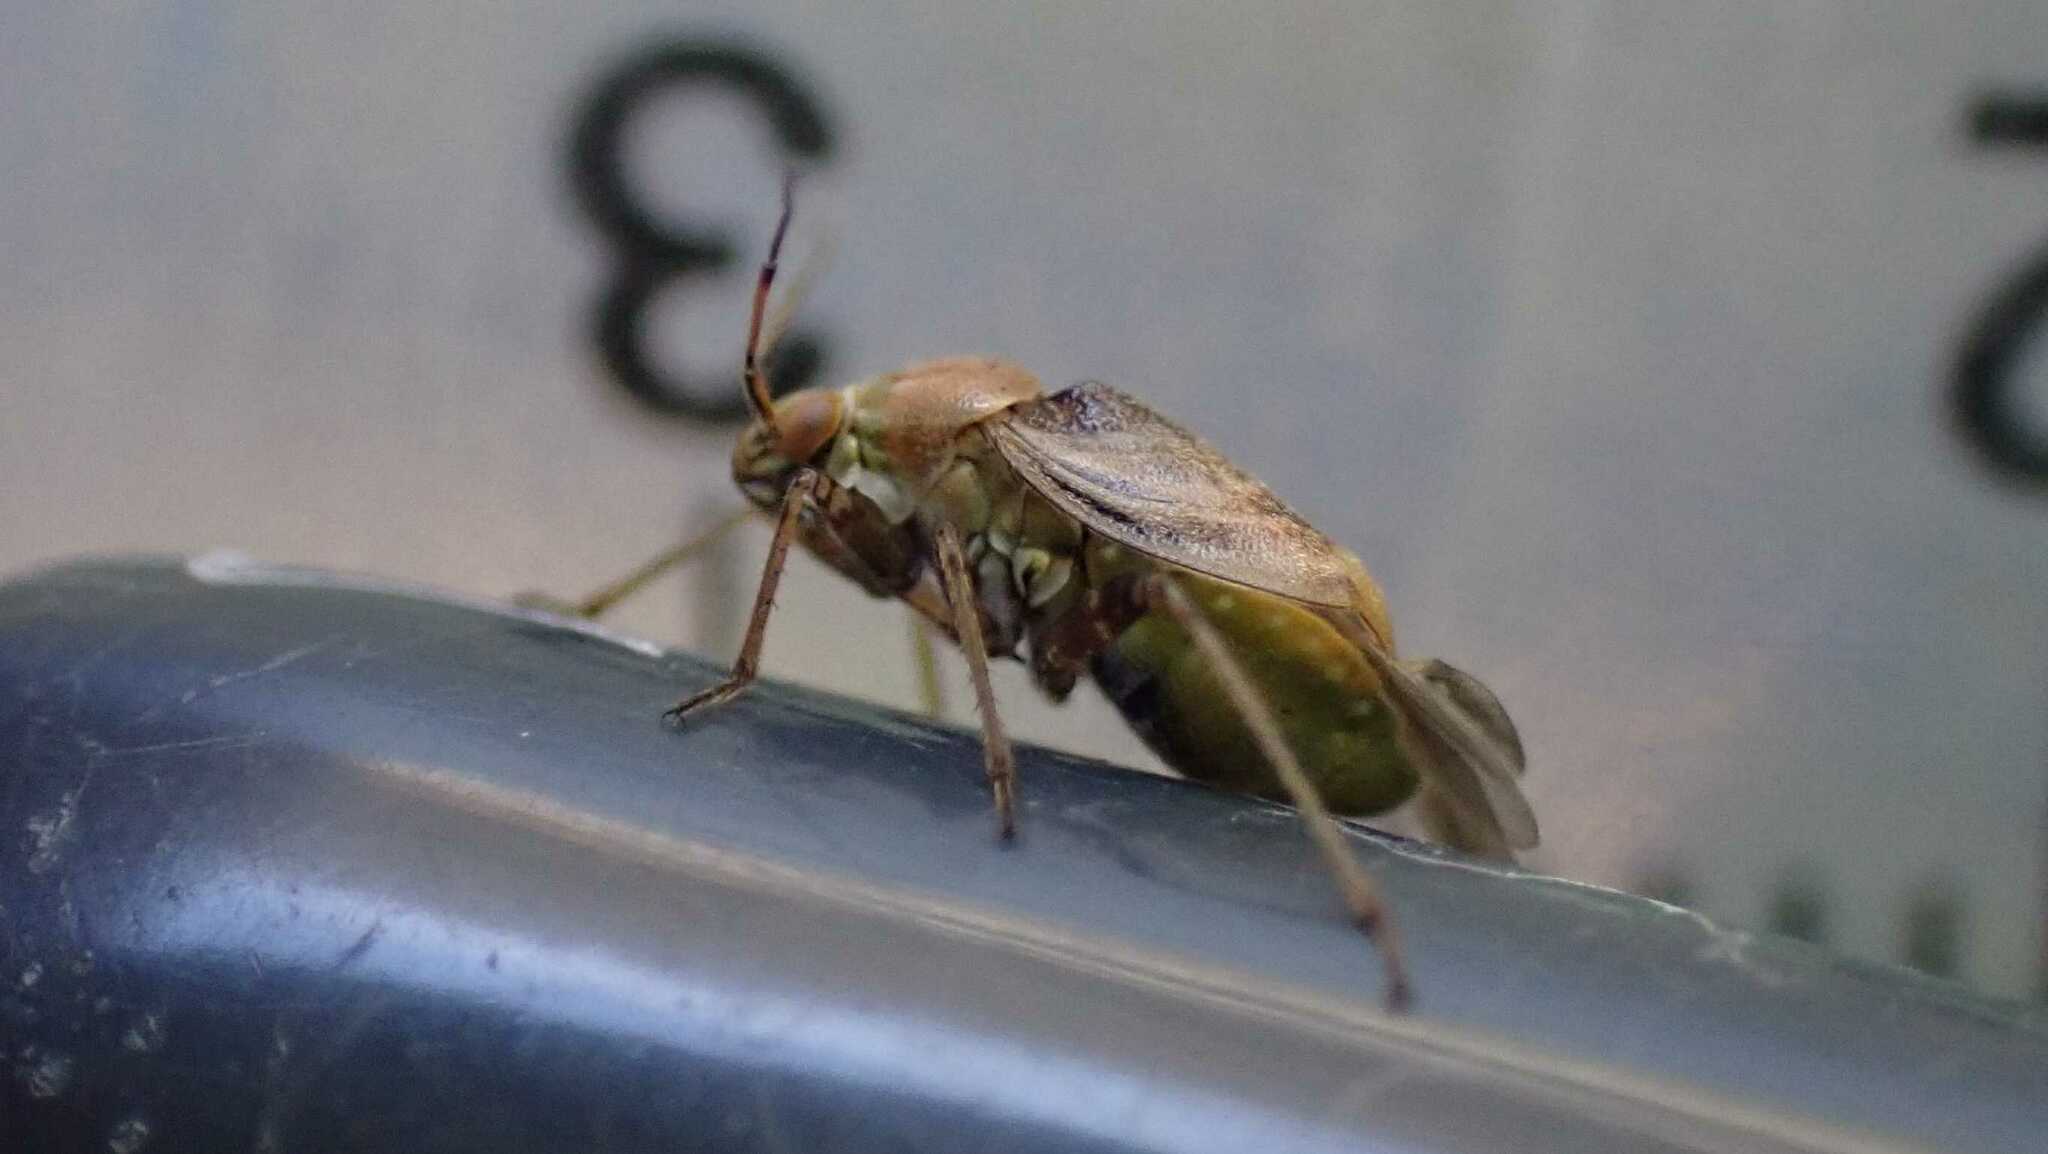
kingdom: Animalia
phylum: Arthropoda
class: Insecta
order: Hemiptera
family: Miridae
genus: Lygus
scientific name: Lygus rugulipennis
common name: European tarnished plant bug
